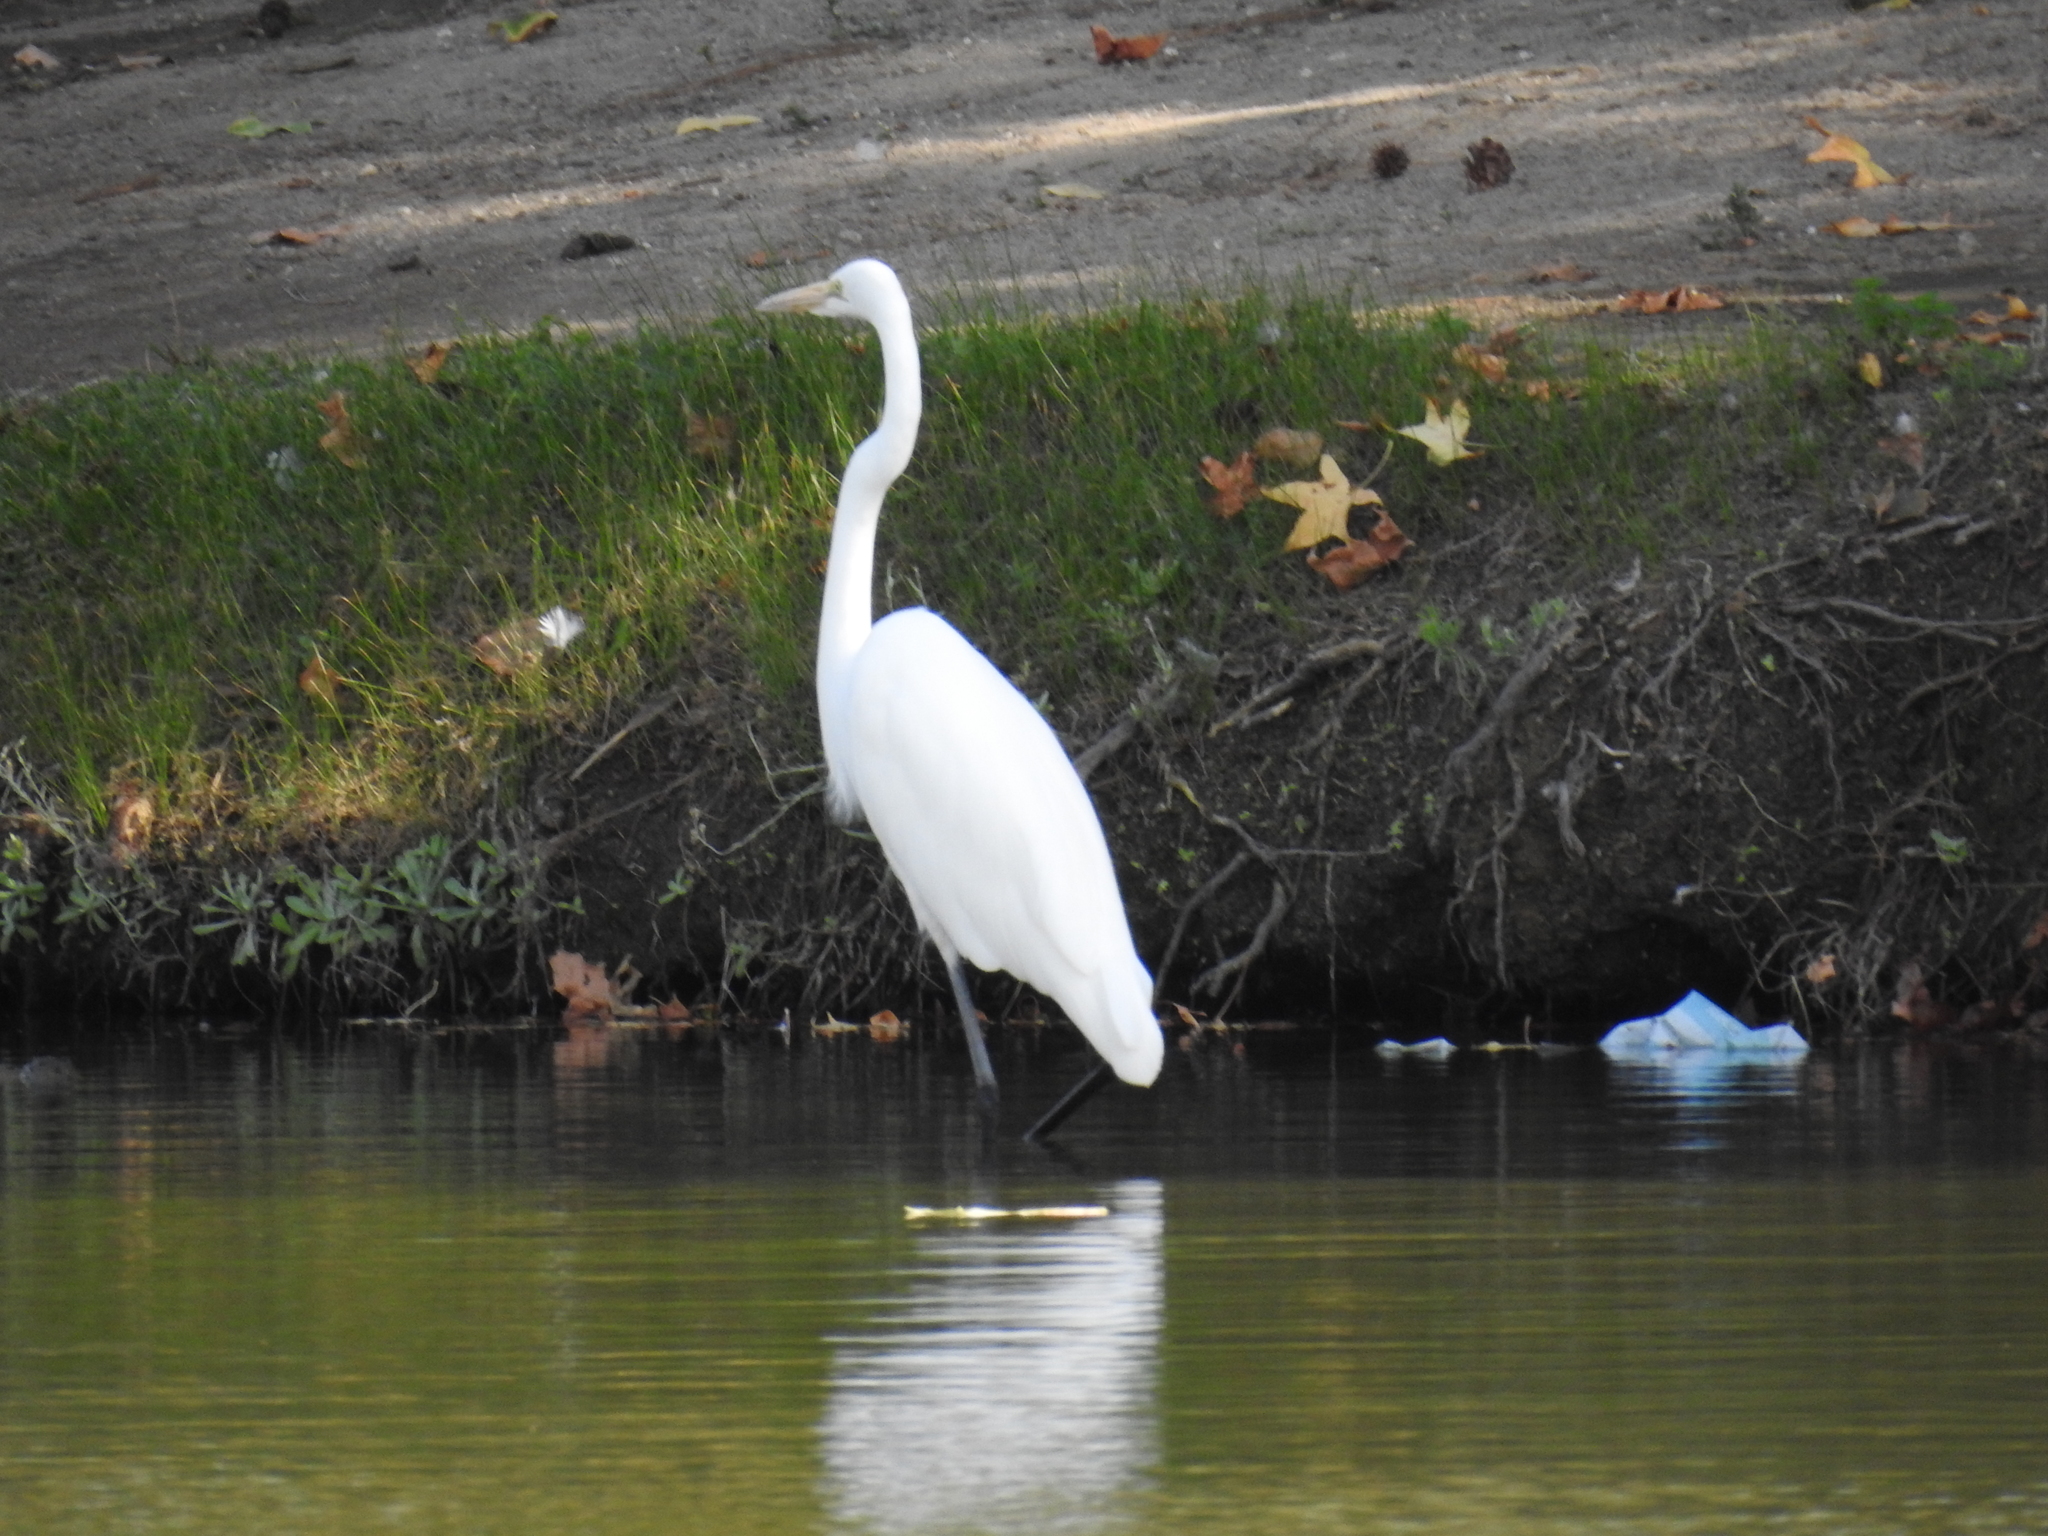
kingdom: Animalia
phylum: Chordata
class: Aves
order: Pelecaniformes
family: Ardeidae
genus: Ardea
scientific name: Ardea alba
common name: Great egret
